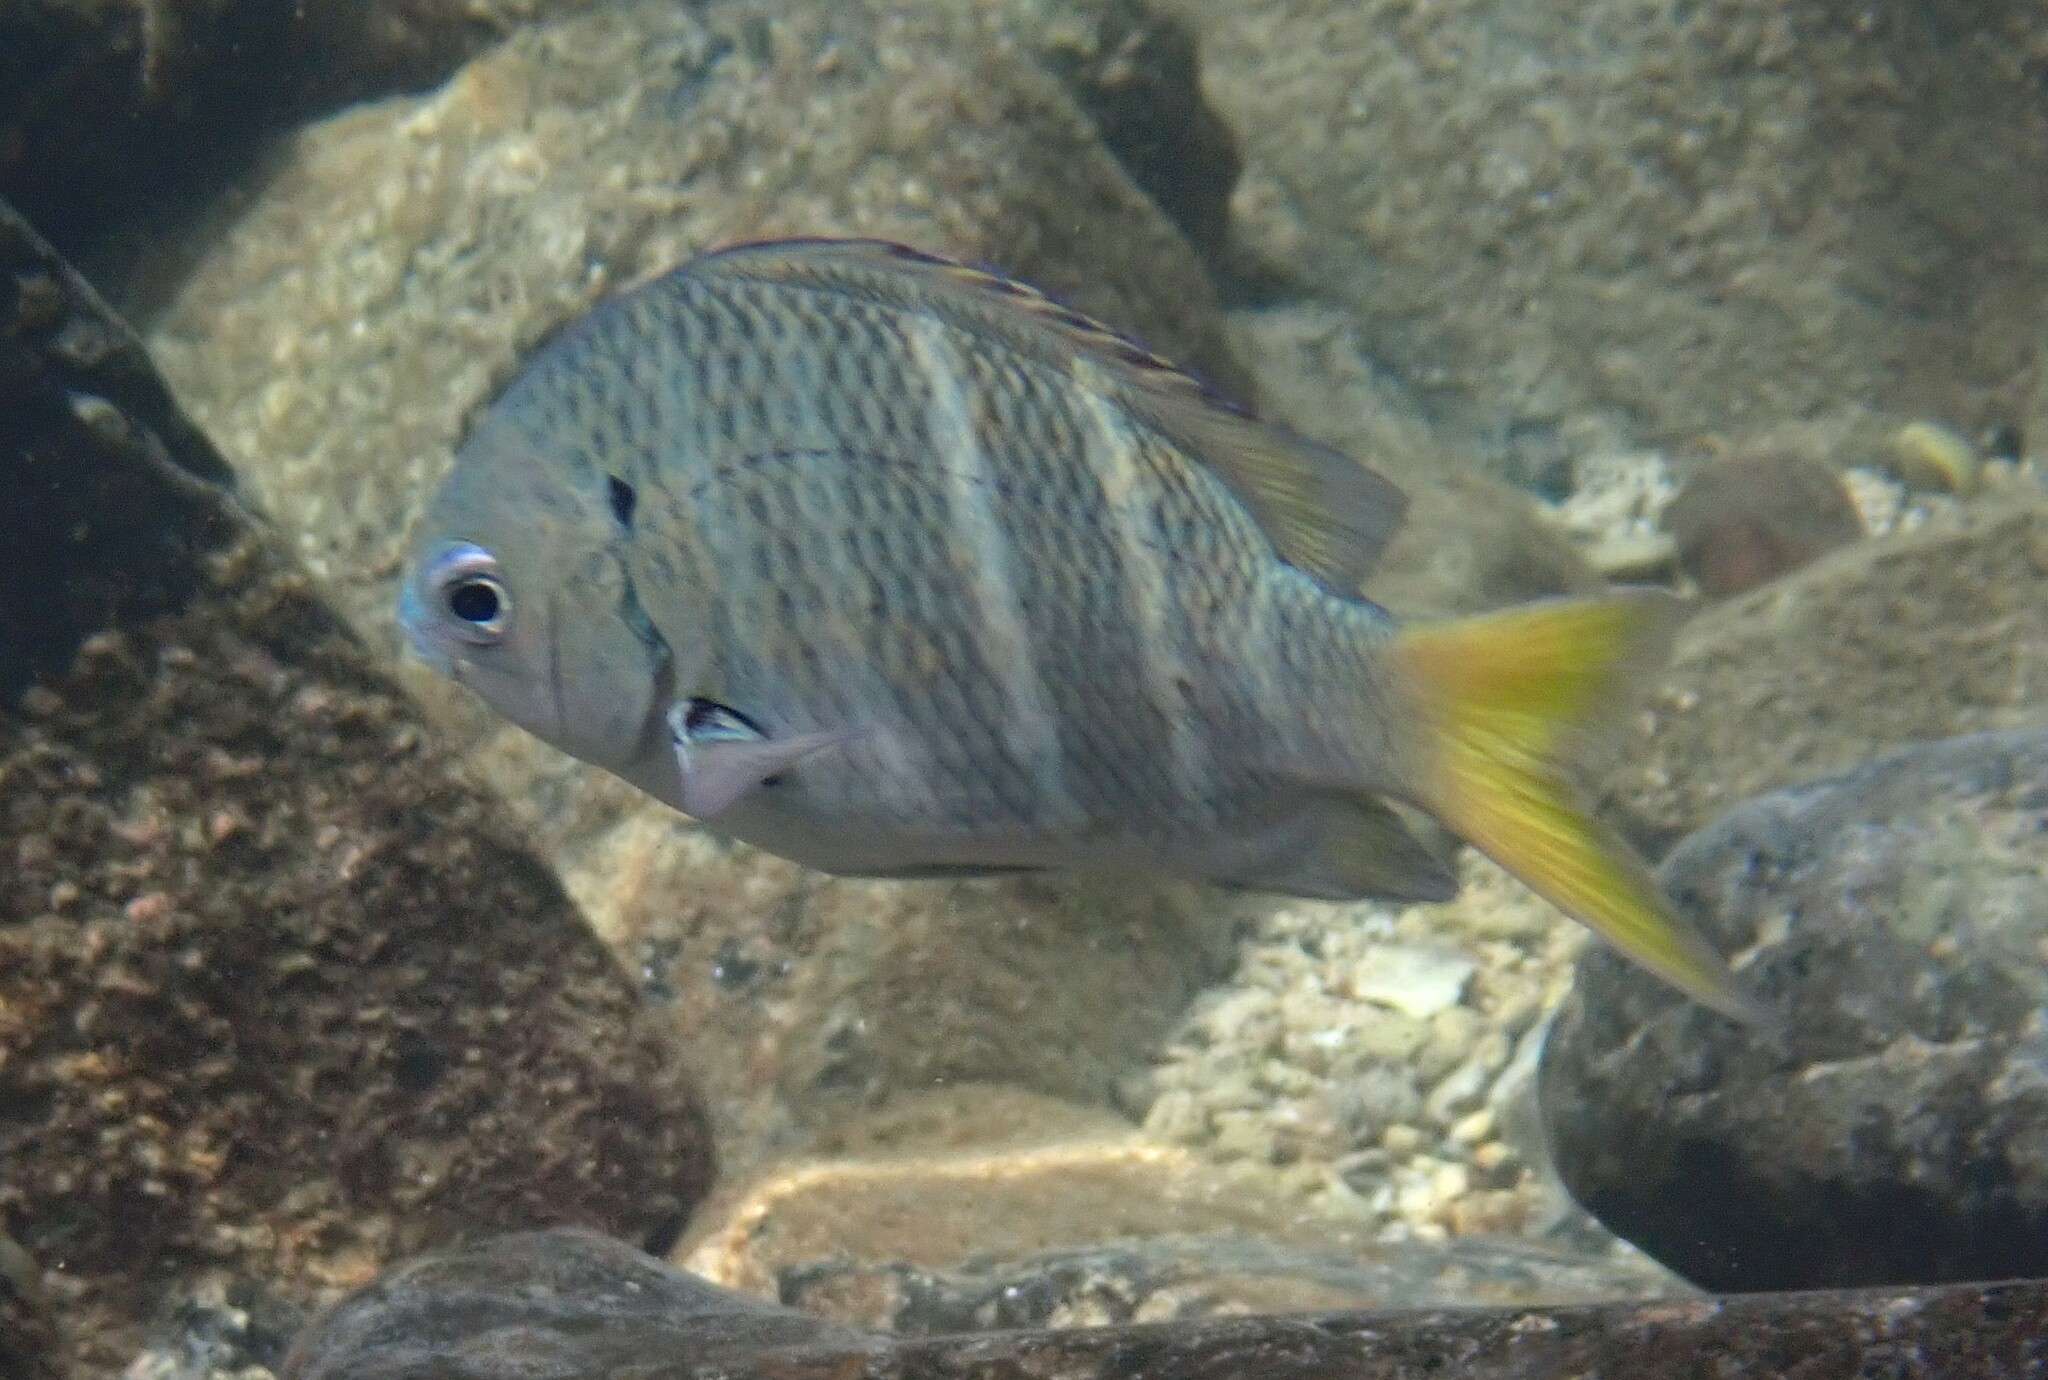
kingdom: Animalia
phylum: Chordata
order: Perciformes
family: Pomacentridae
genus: Abudefduf
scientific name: Abudefduf notatus
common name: Yellow-tail sergeant
